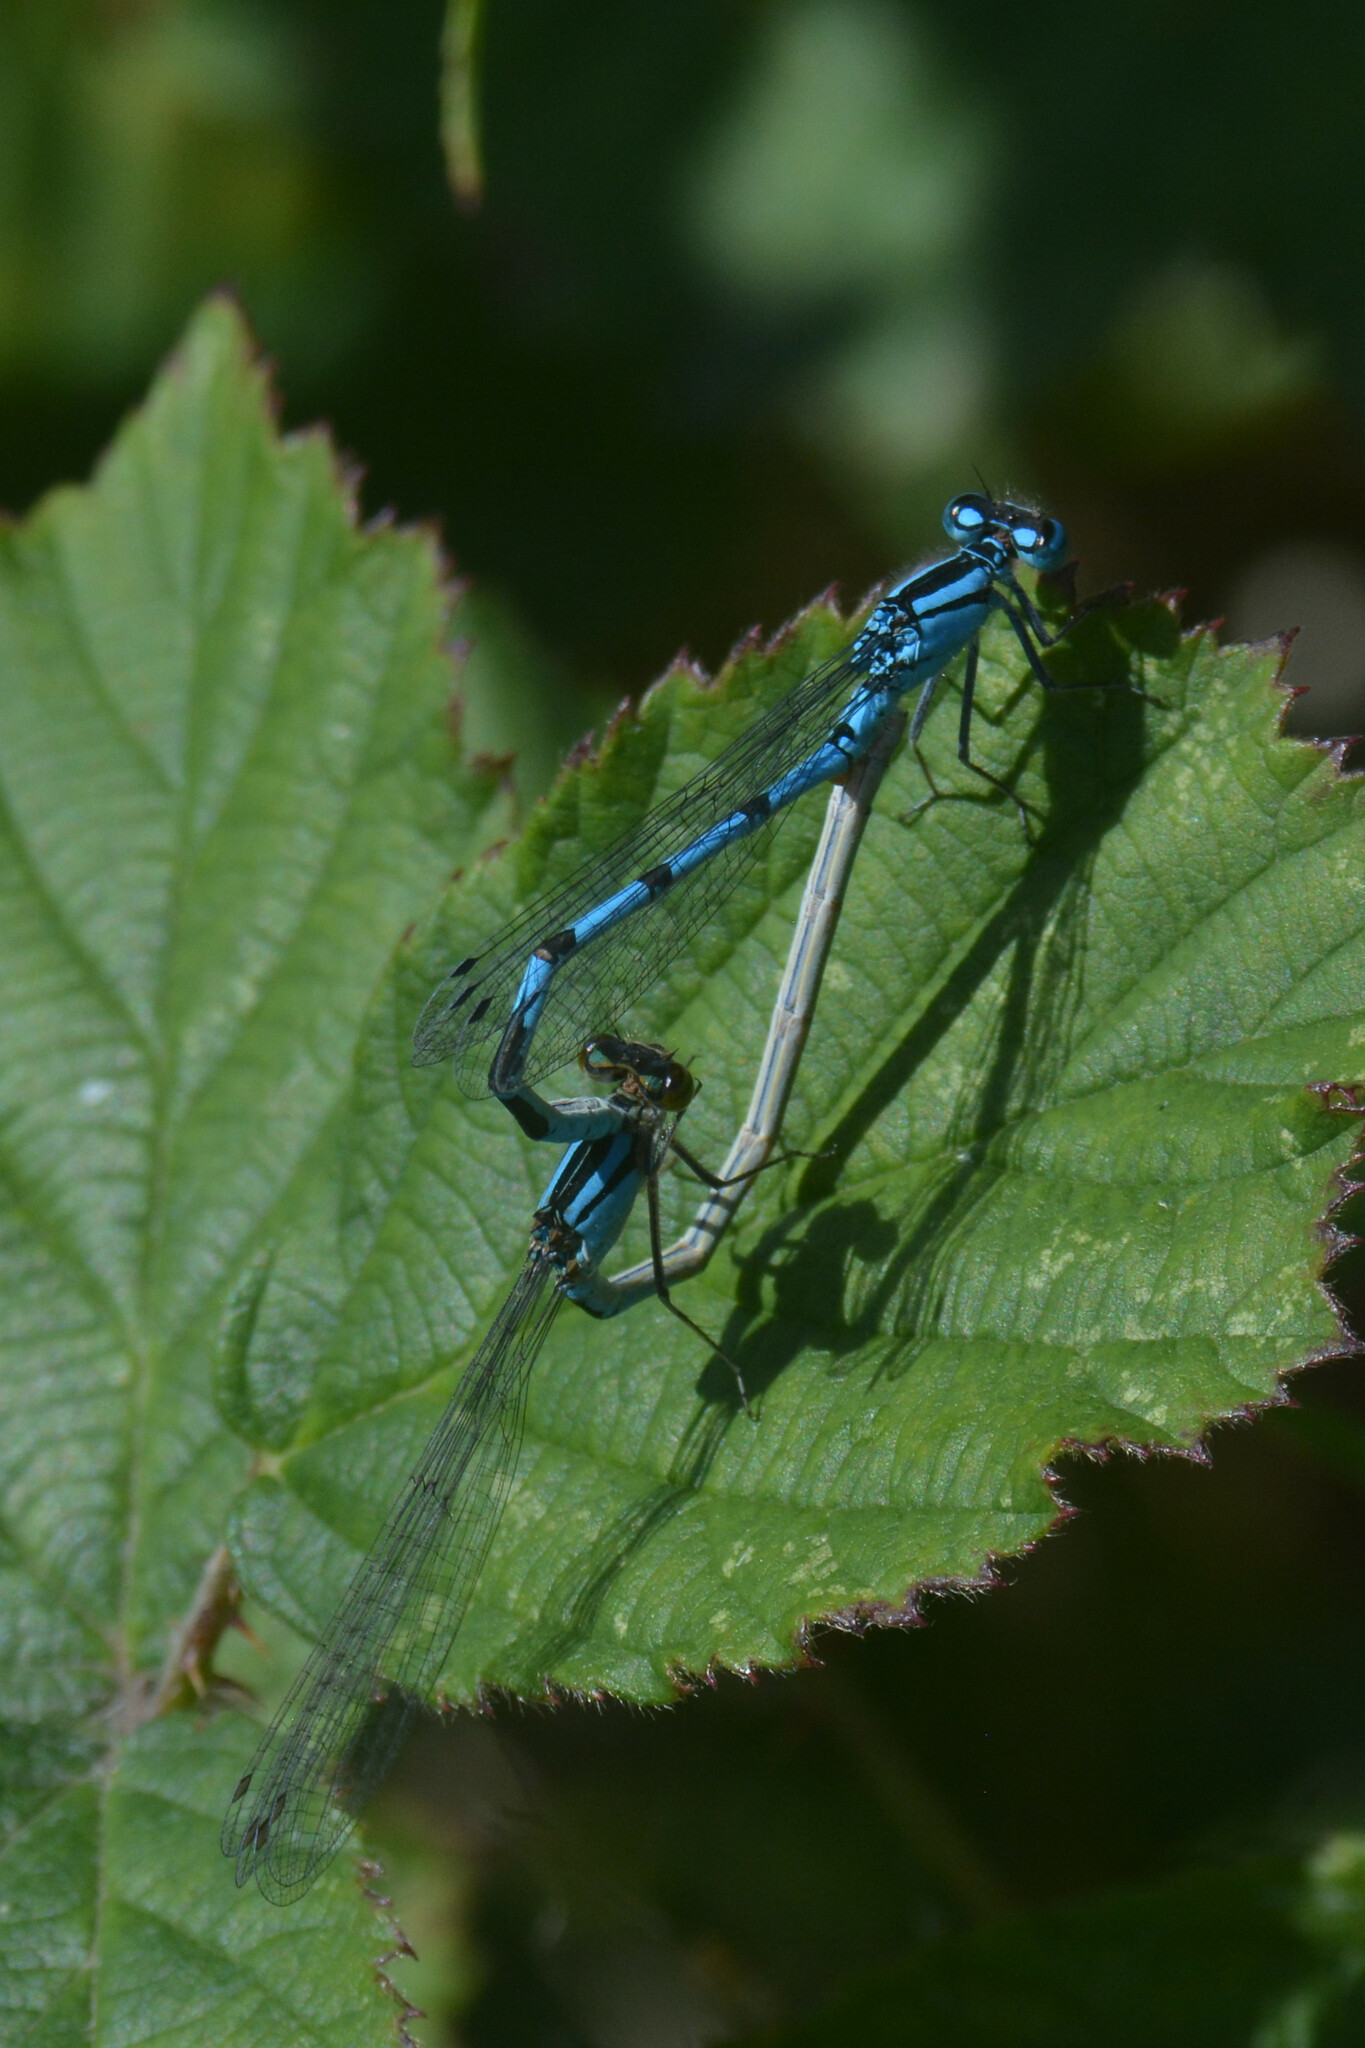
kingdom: Animalia
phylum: Arthropoda
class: Insecta
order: Odonata
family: Coenagrionidae
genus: Enallagma
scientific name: Enallagma cyathigerum
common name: Common blue damselfly
